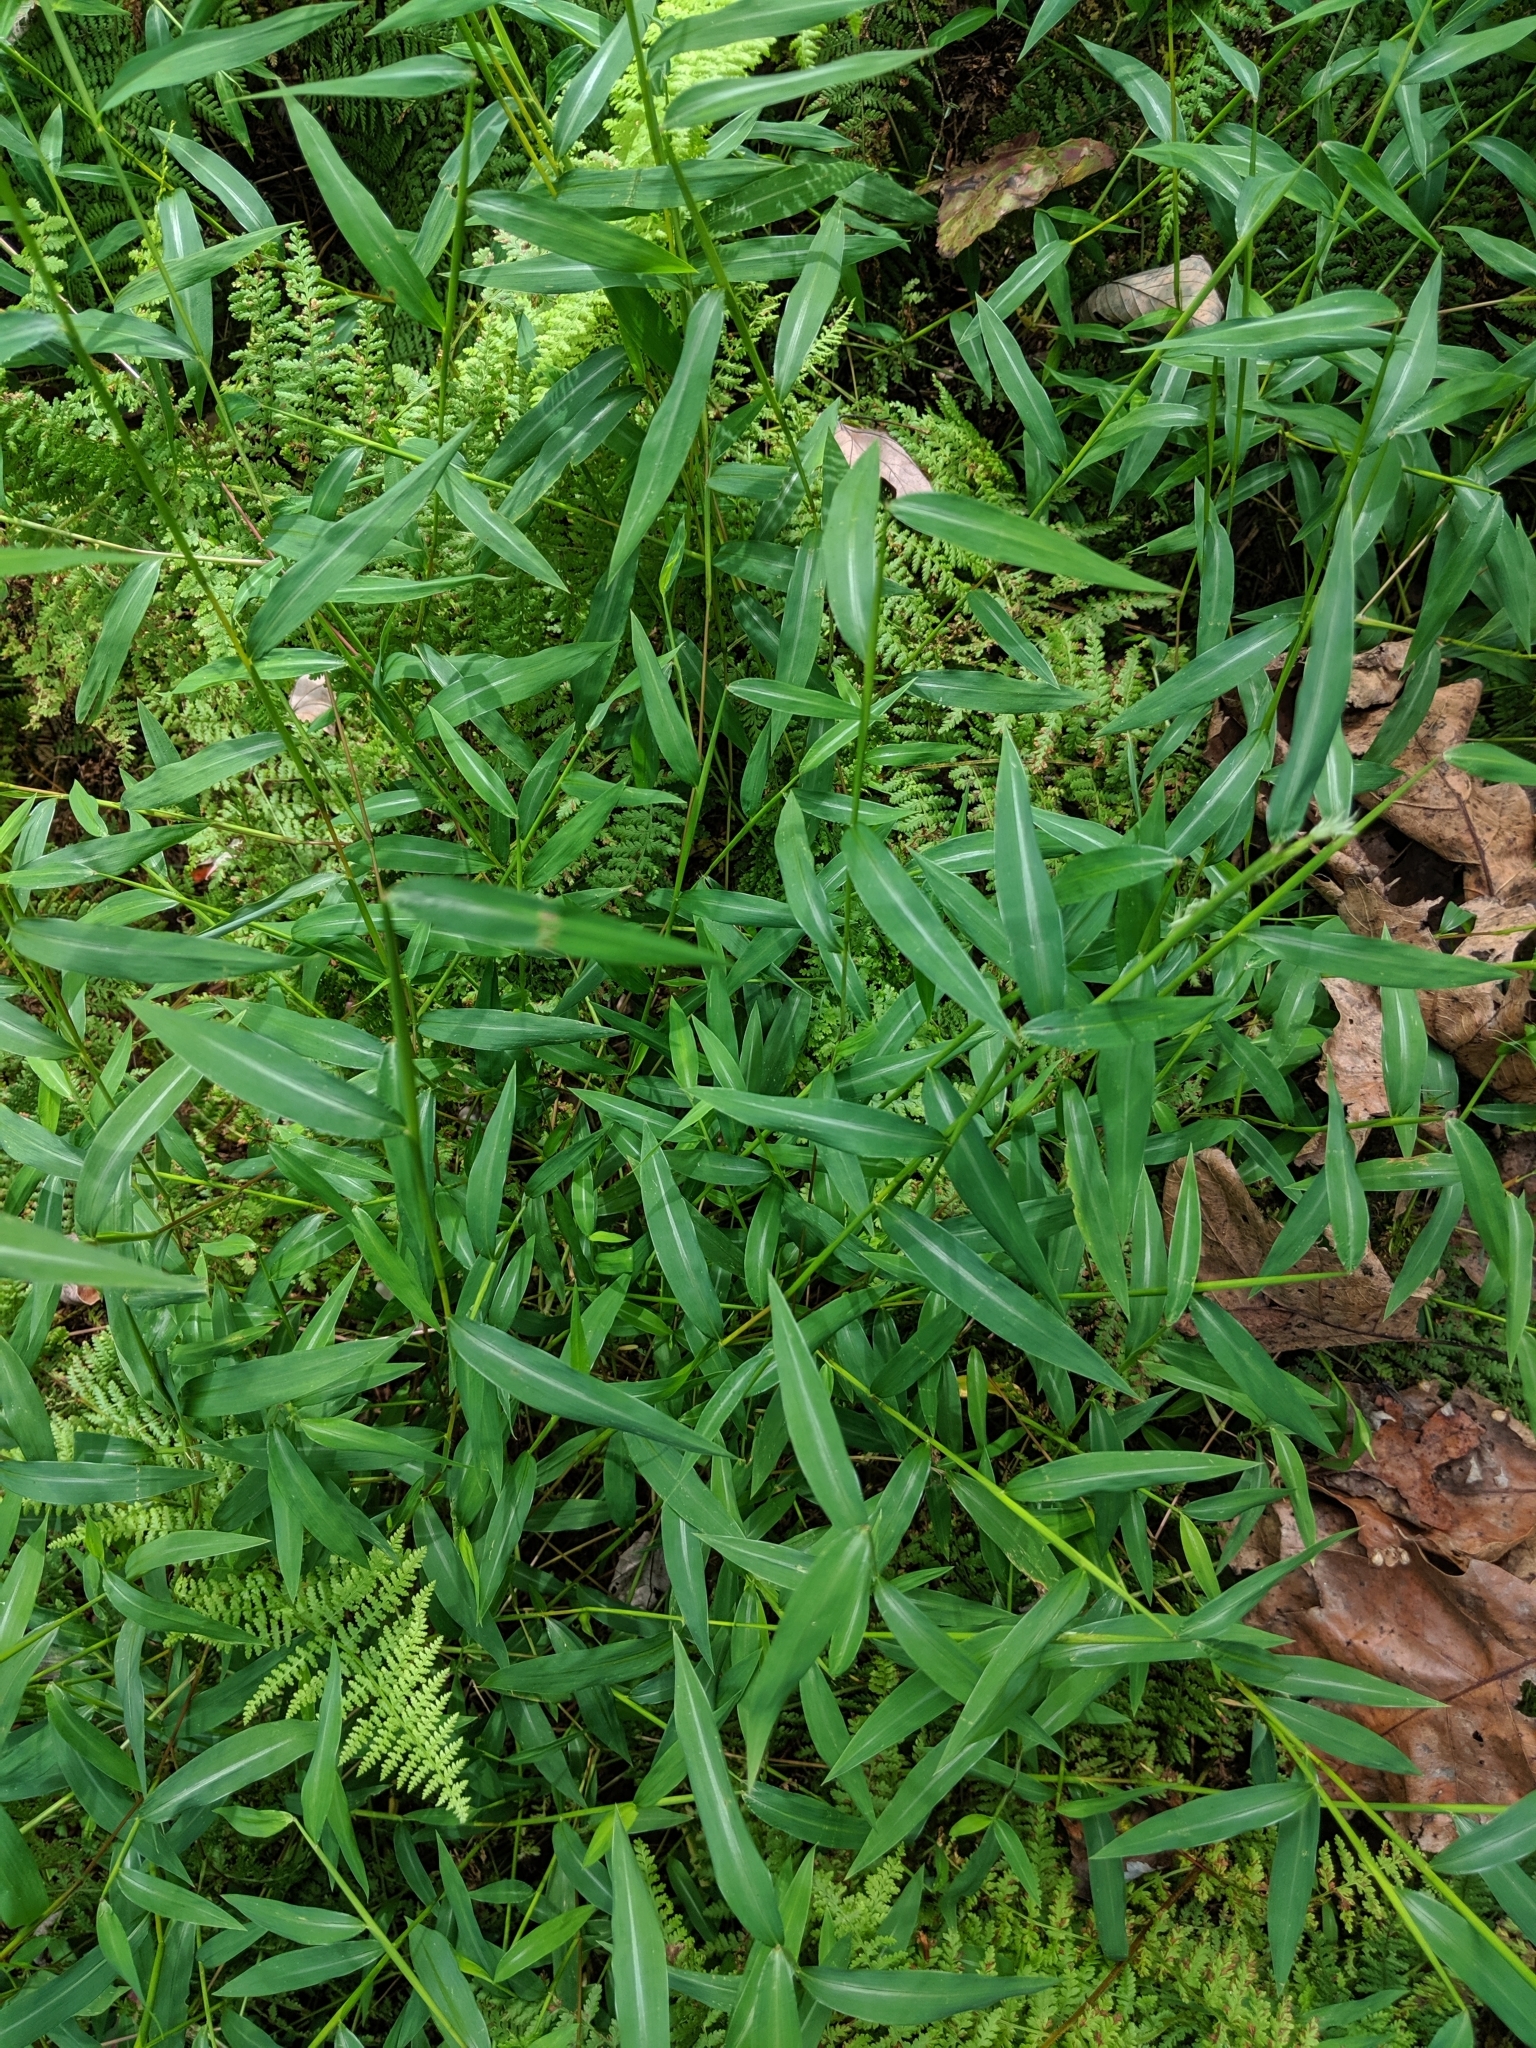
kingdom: Plantae
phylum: Tracheophyta
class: Liliopsida
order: Poales
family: Poaceae
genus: Microstegium
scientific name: Microstegium vimineum
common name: Japanese stiltgrass
